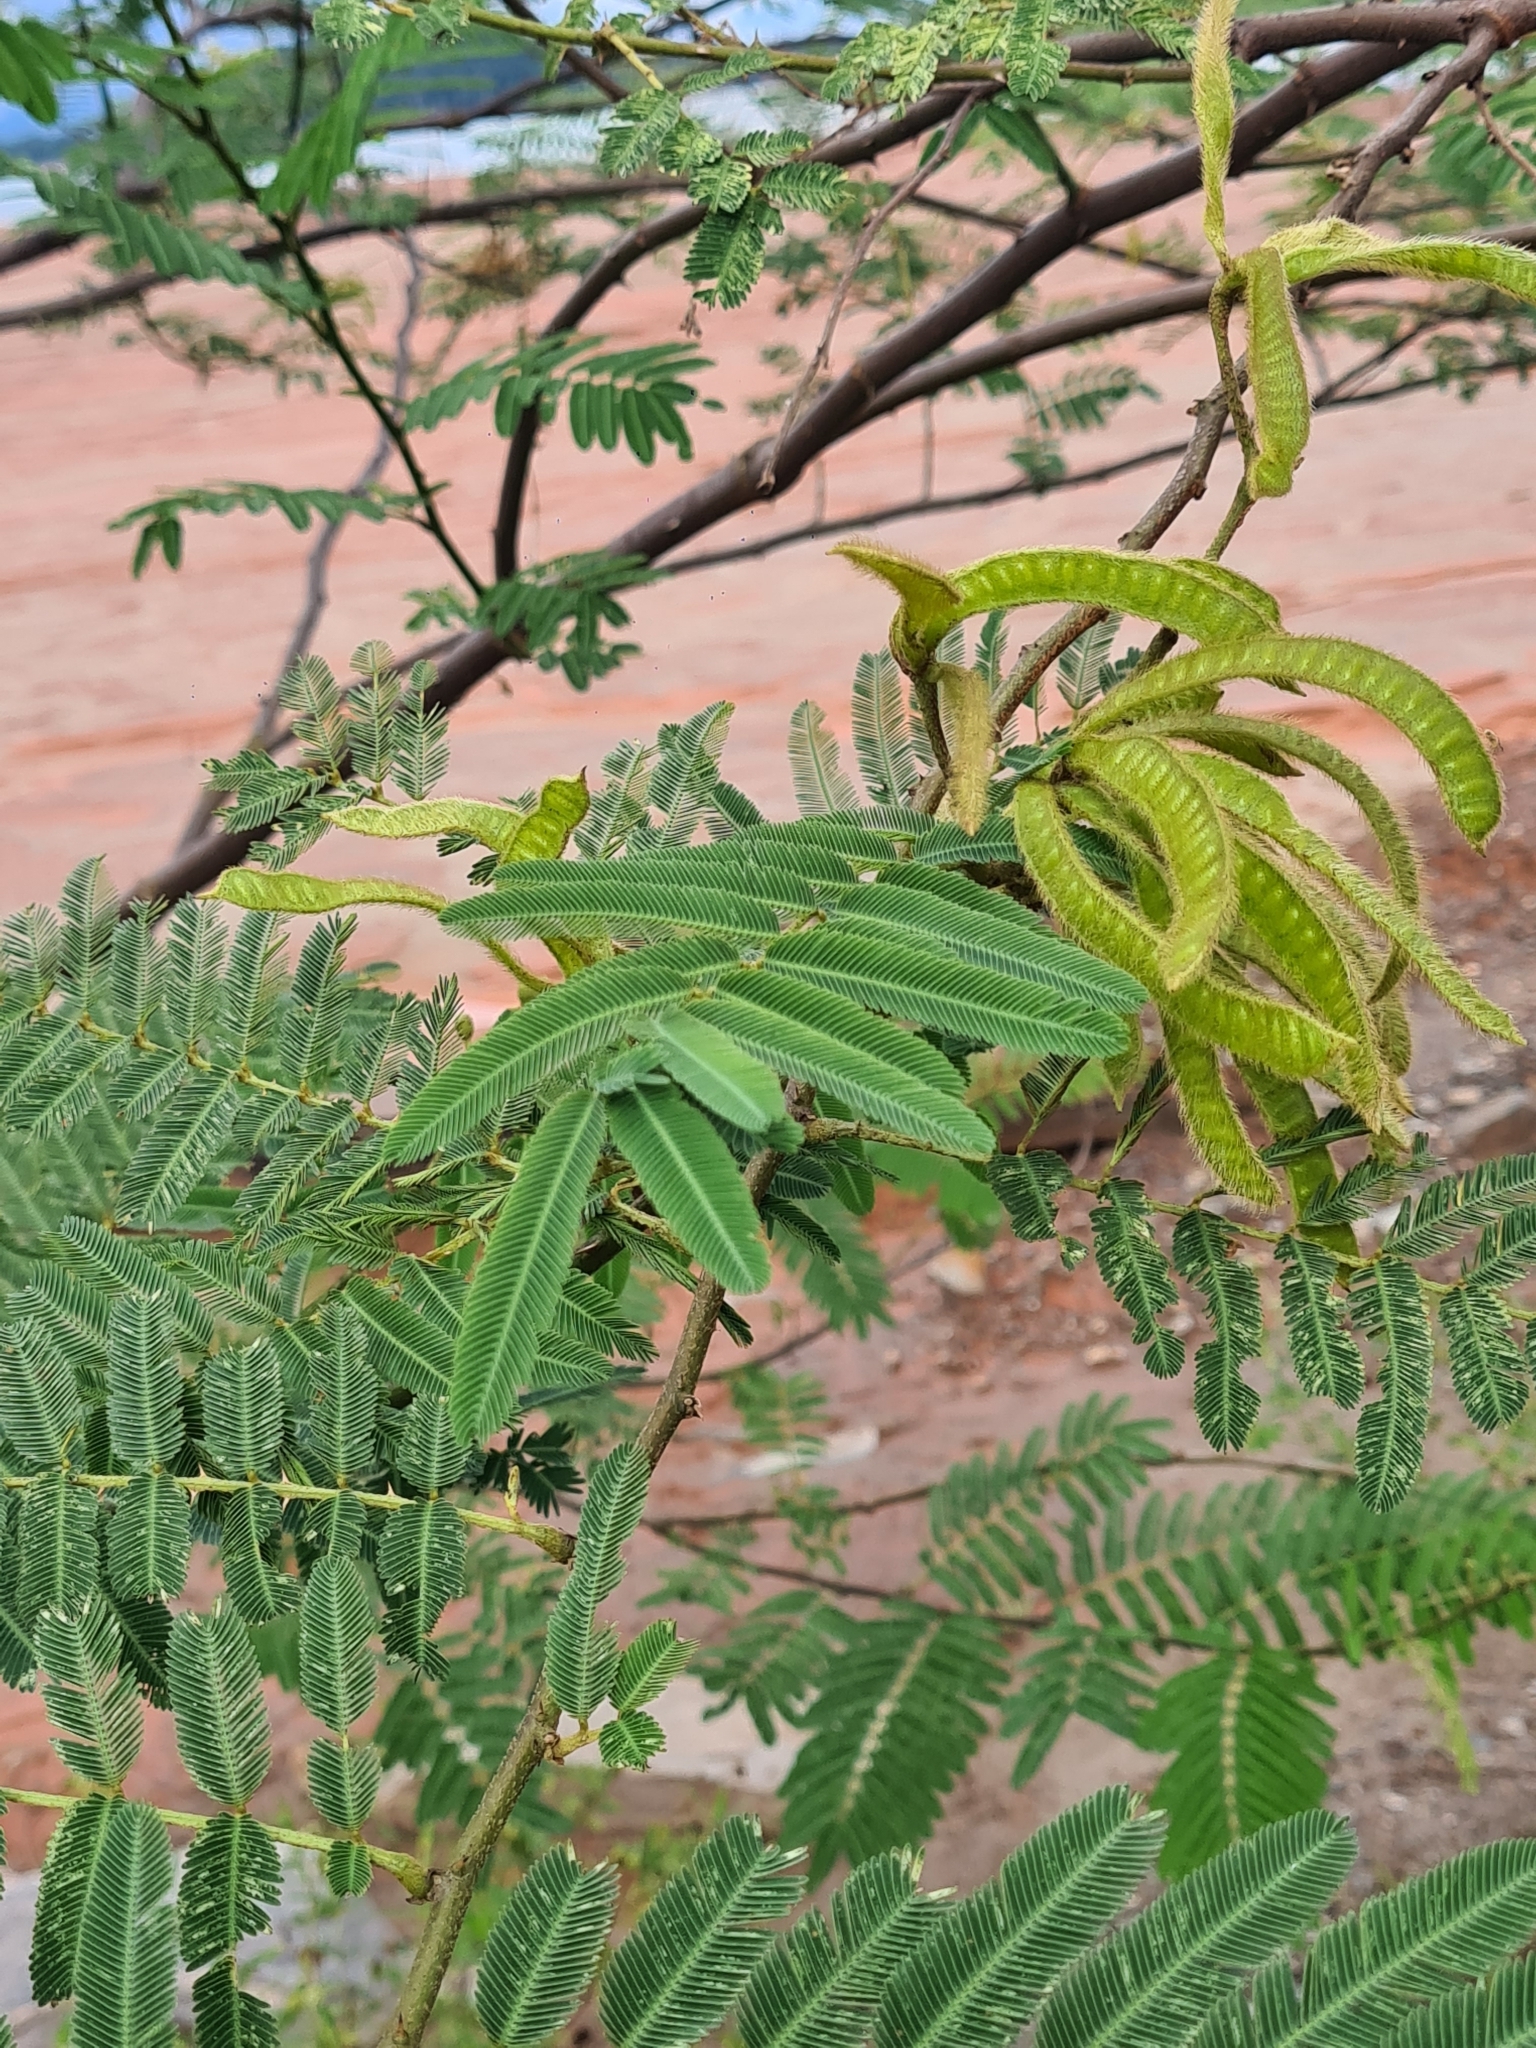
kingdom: Plantae
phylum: Tracheophyta
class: Magnoliopsida
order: Fabales
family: Fabaceae
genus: Mimosa
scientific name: Mimosa pigra
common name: Black mimosa
